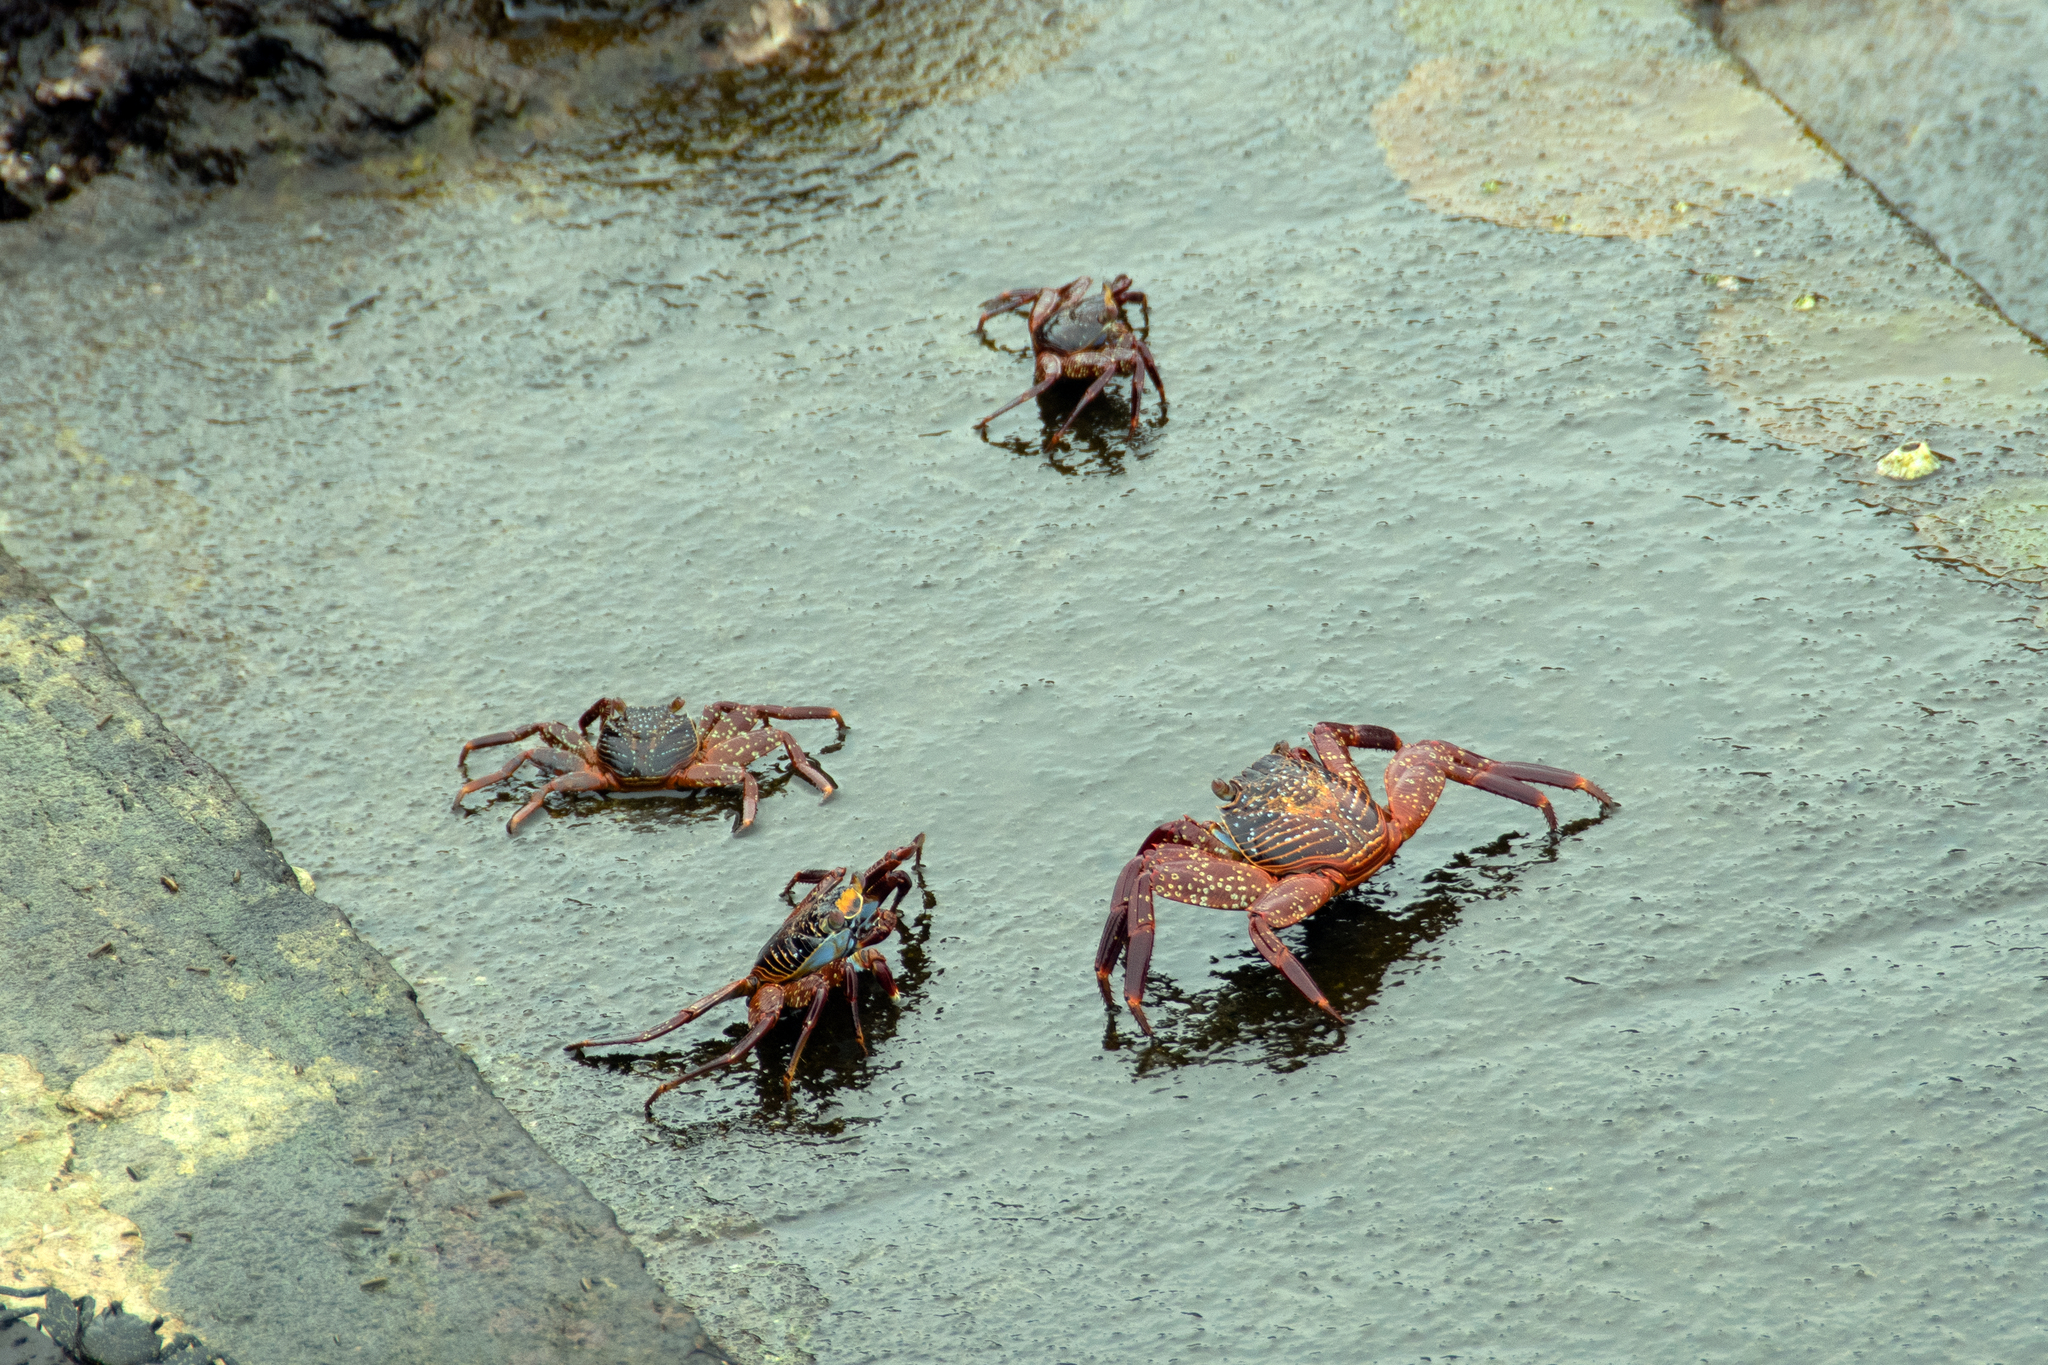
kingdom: Animalia
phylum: Arthropoda
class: Malacostraca
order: Decapoda
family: Grapsidae
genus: Grapsus
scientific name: Grapsus grapsus
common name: Sally lightfoot
